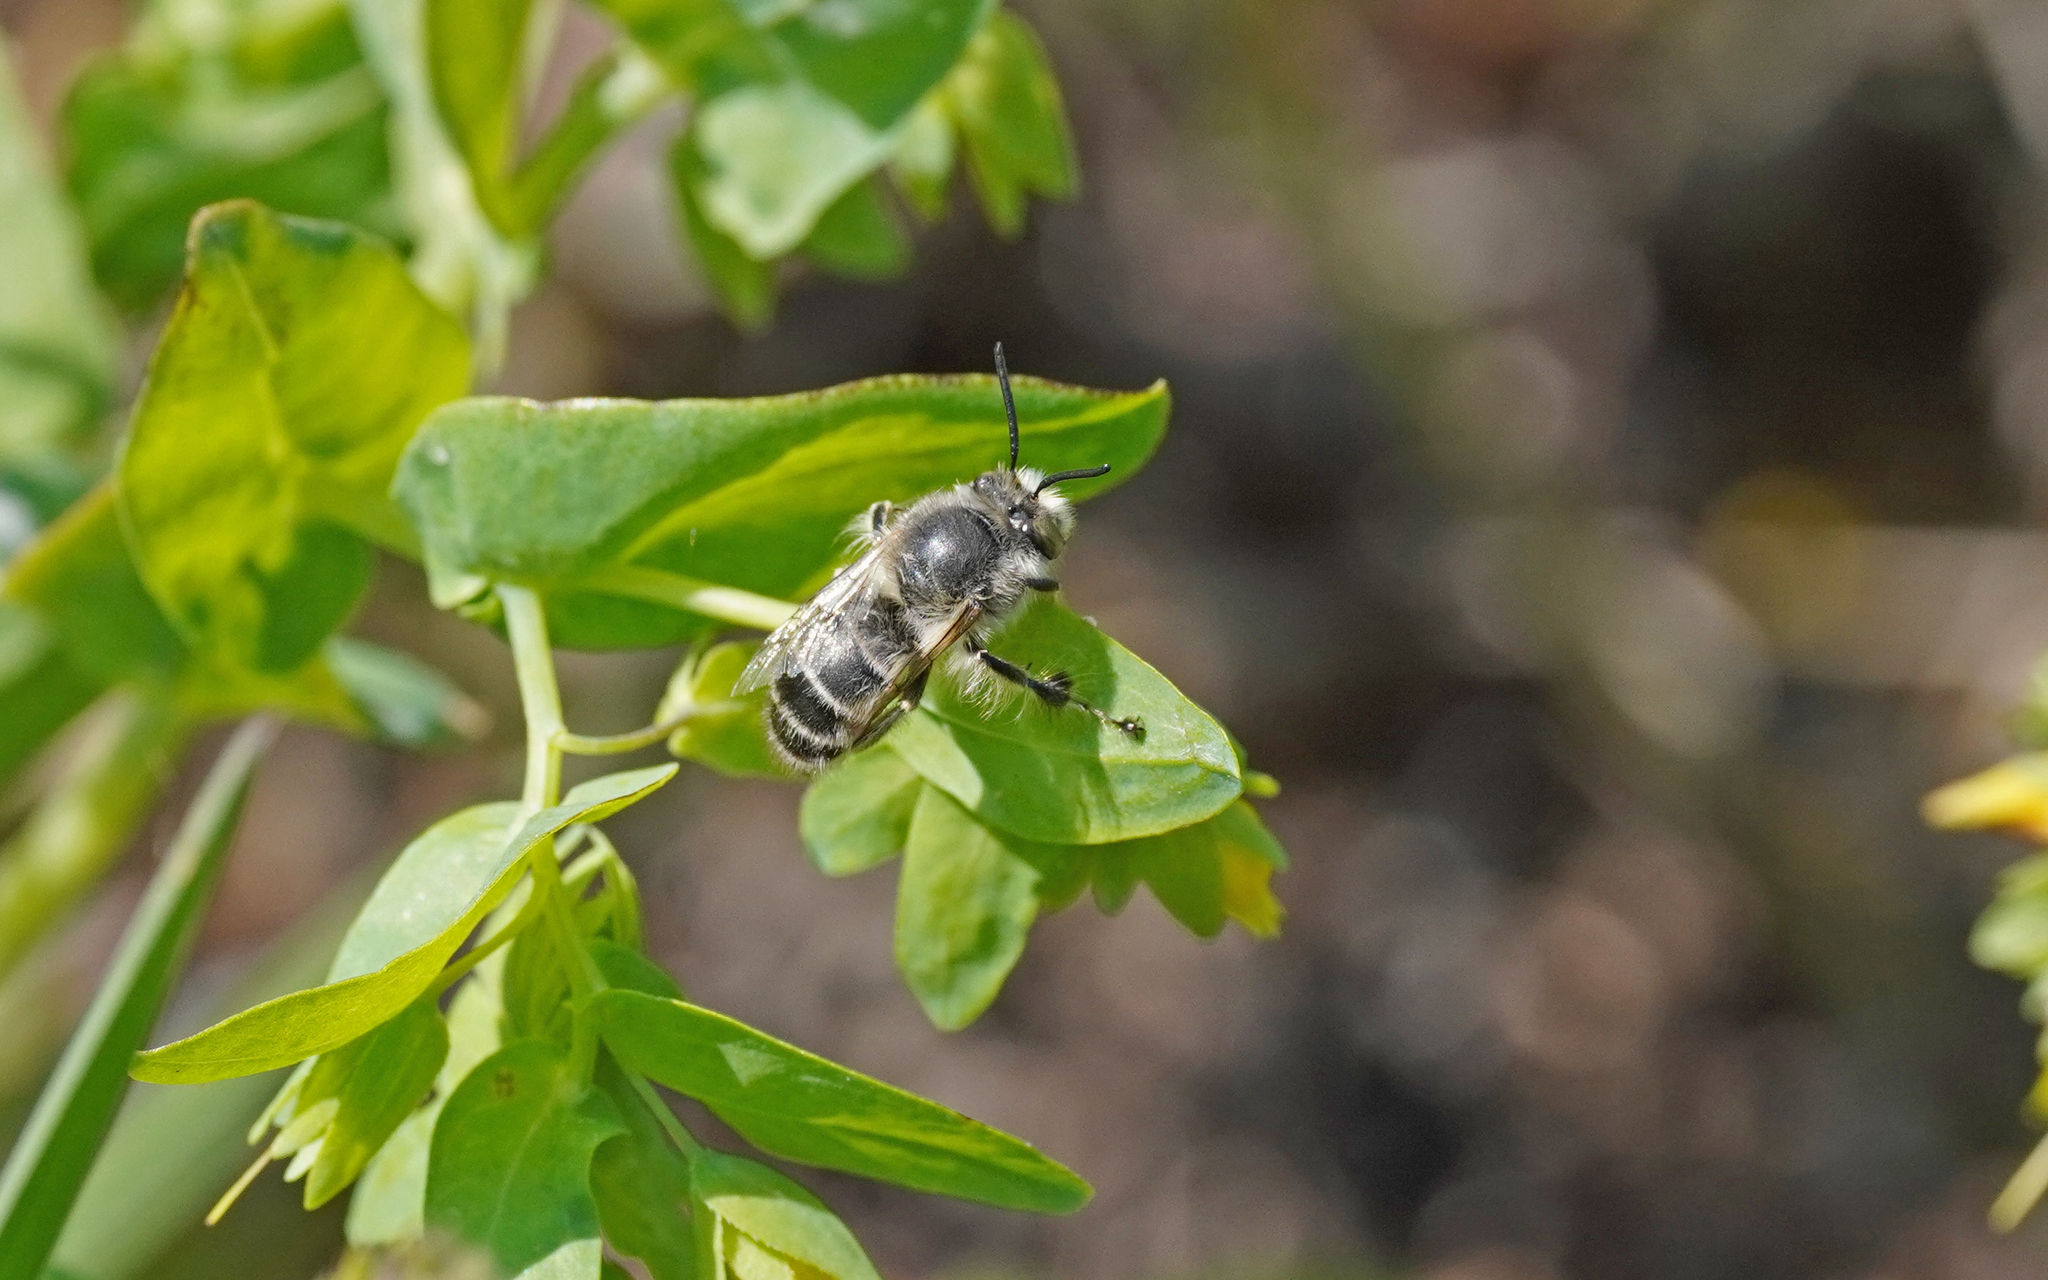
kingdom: Animalia
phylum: Arthropoda
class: Insecta
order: Hymenoptera
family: Apidae
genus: Anthophora
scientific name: Anthophora crinipes
